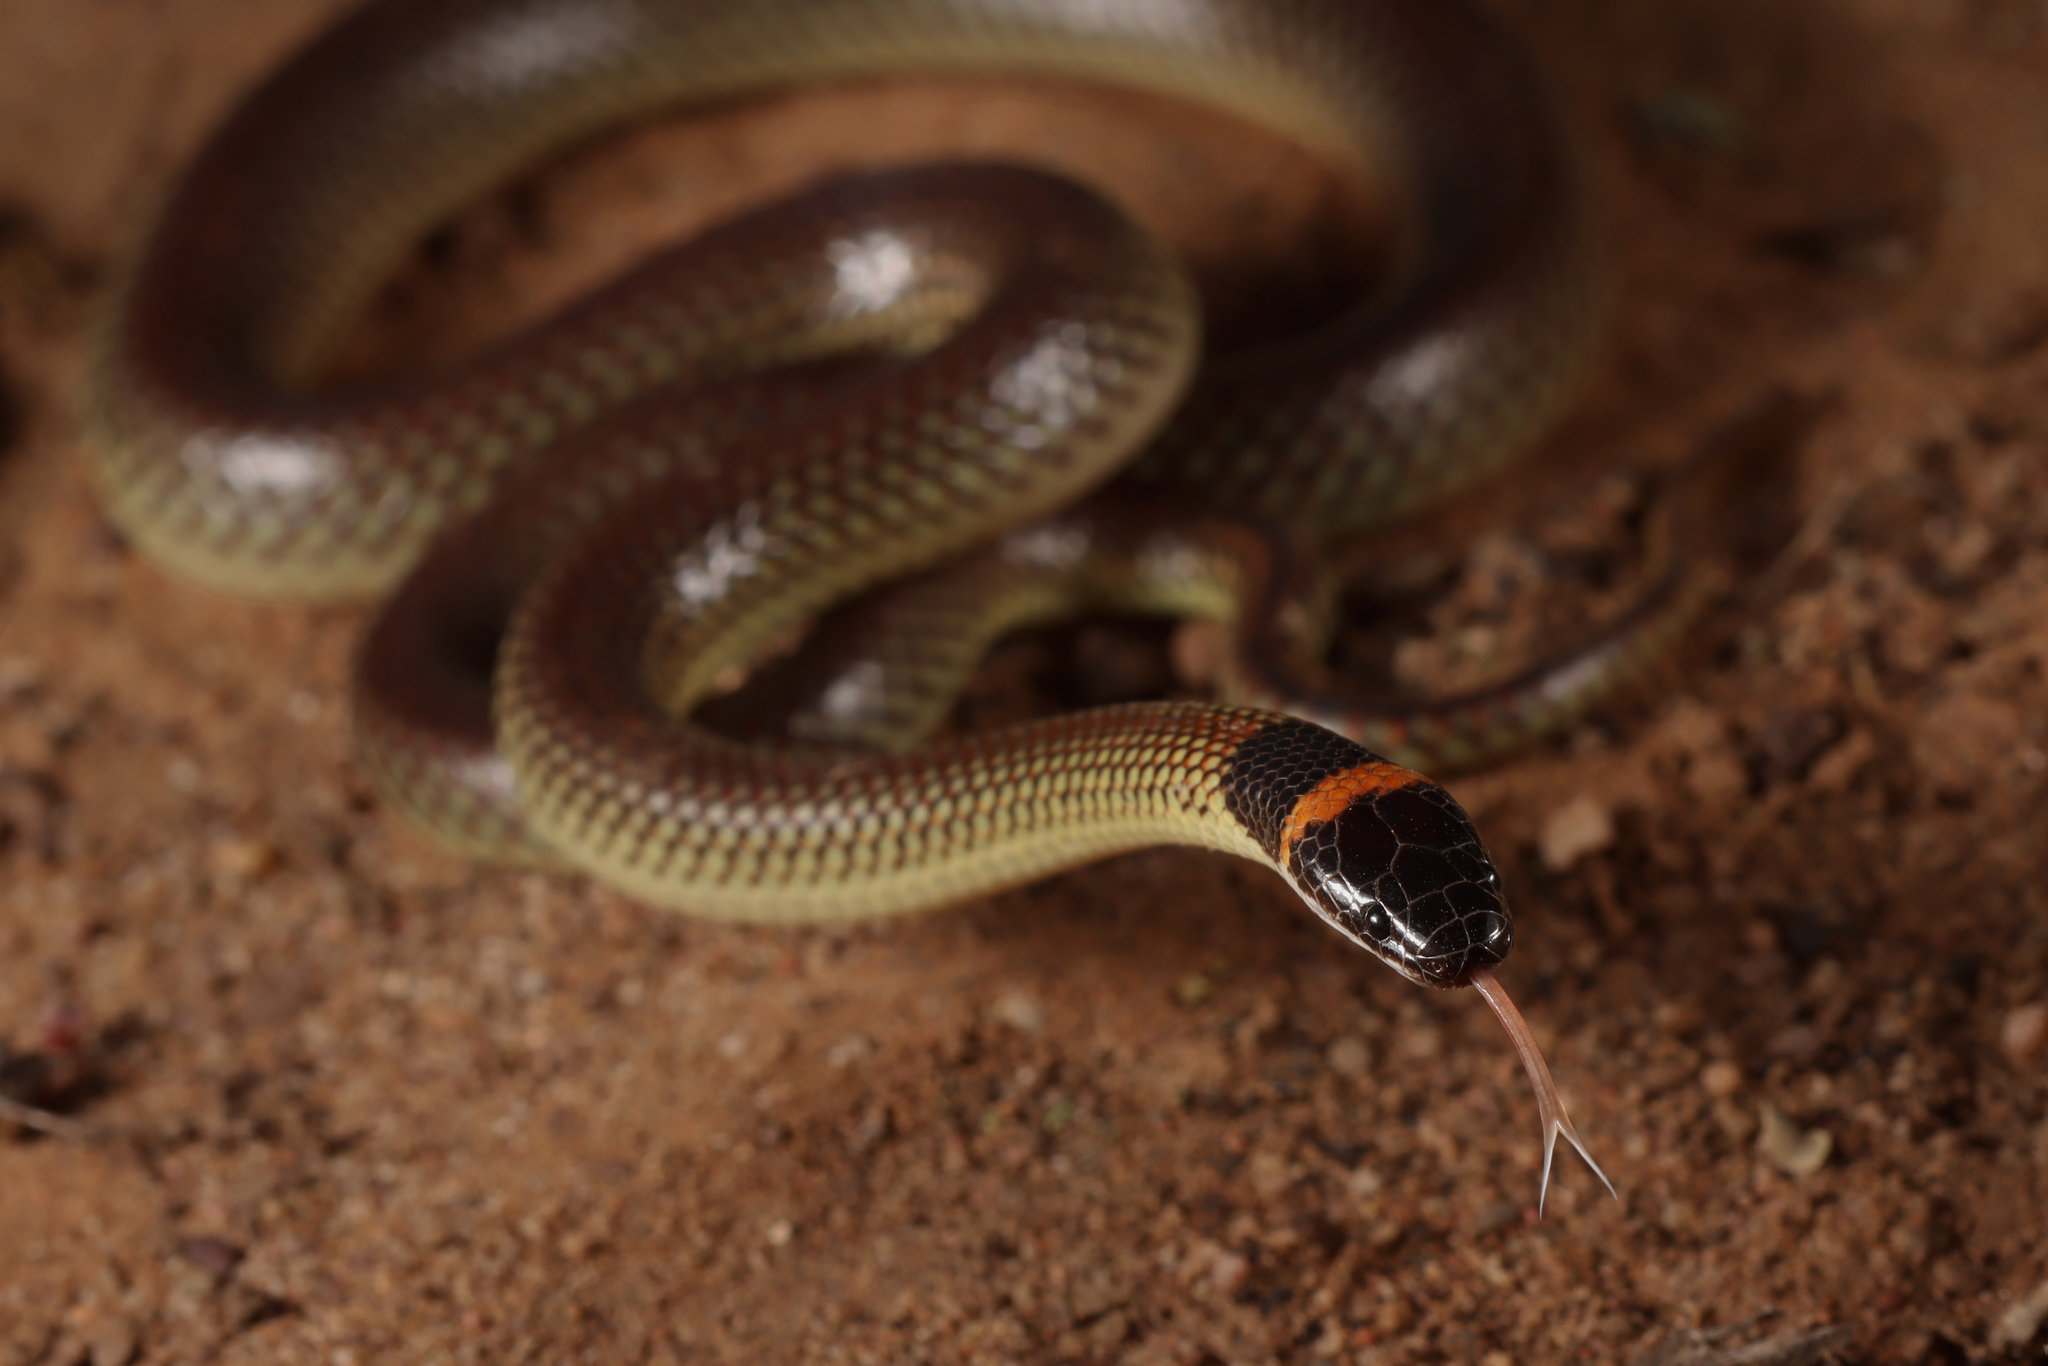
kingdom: Animalia
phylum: Chordata
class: Squamata
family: Elapidae
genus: Furina
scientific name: Furina diadema
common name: Red-naped snake
